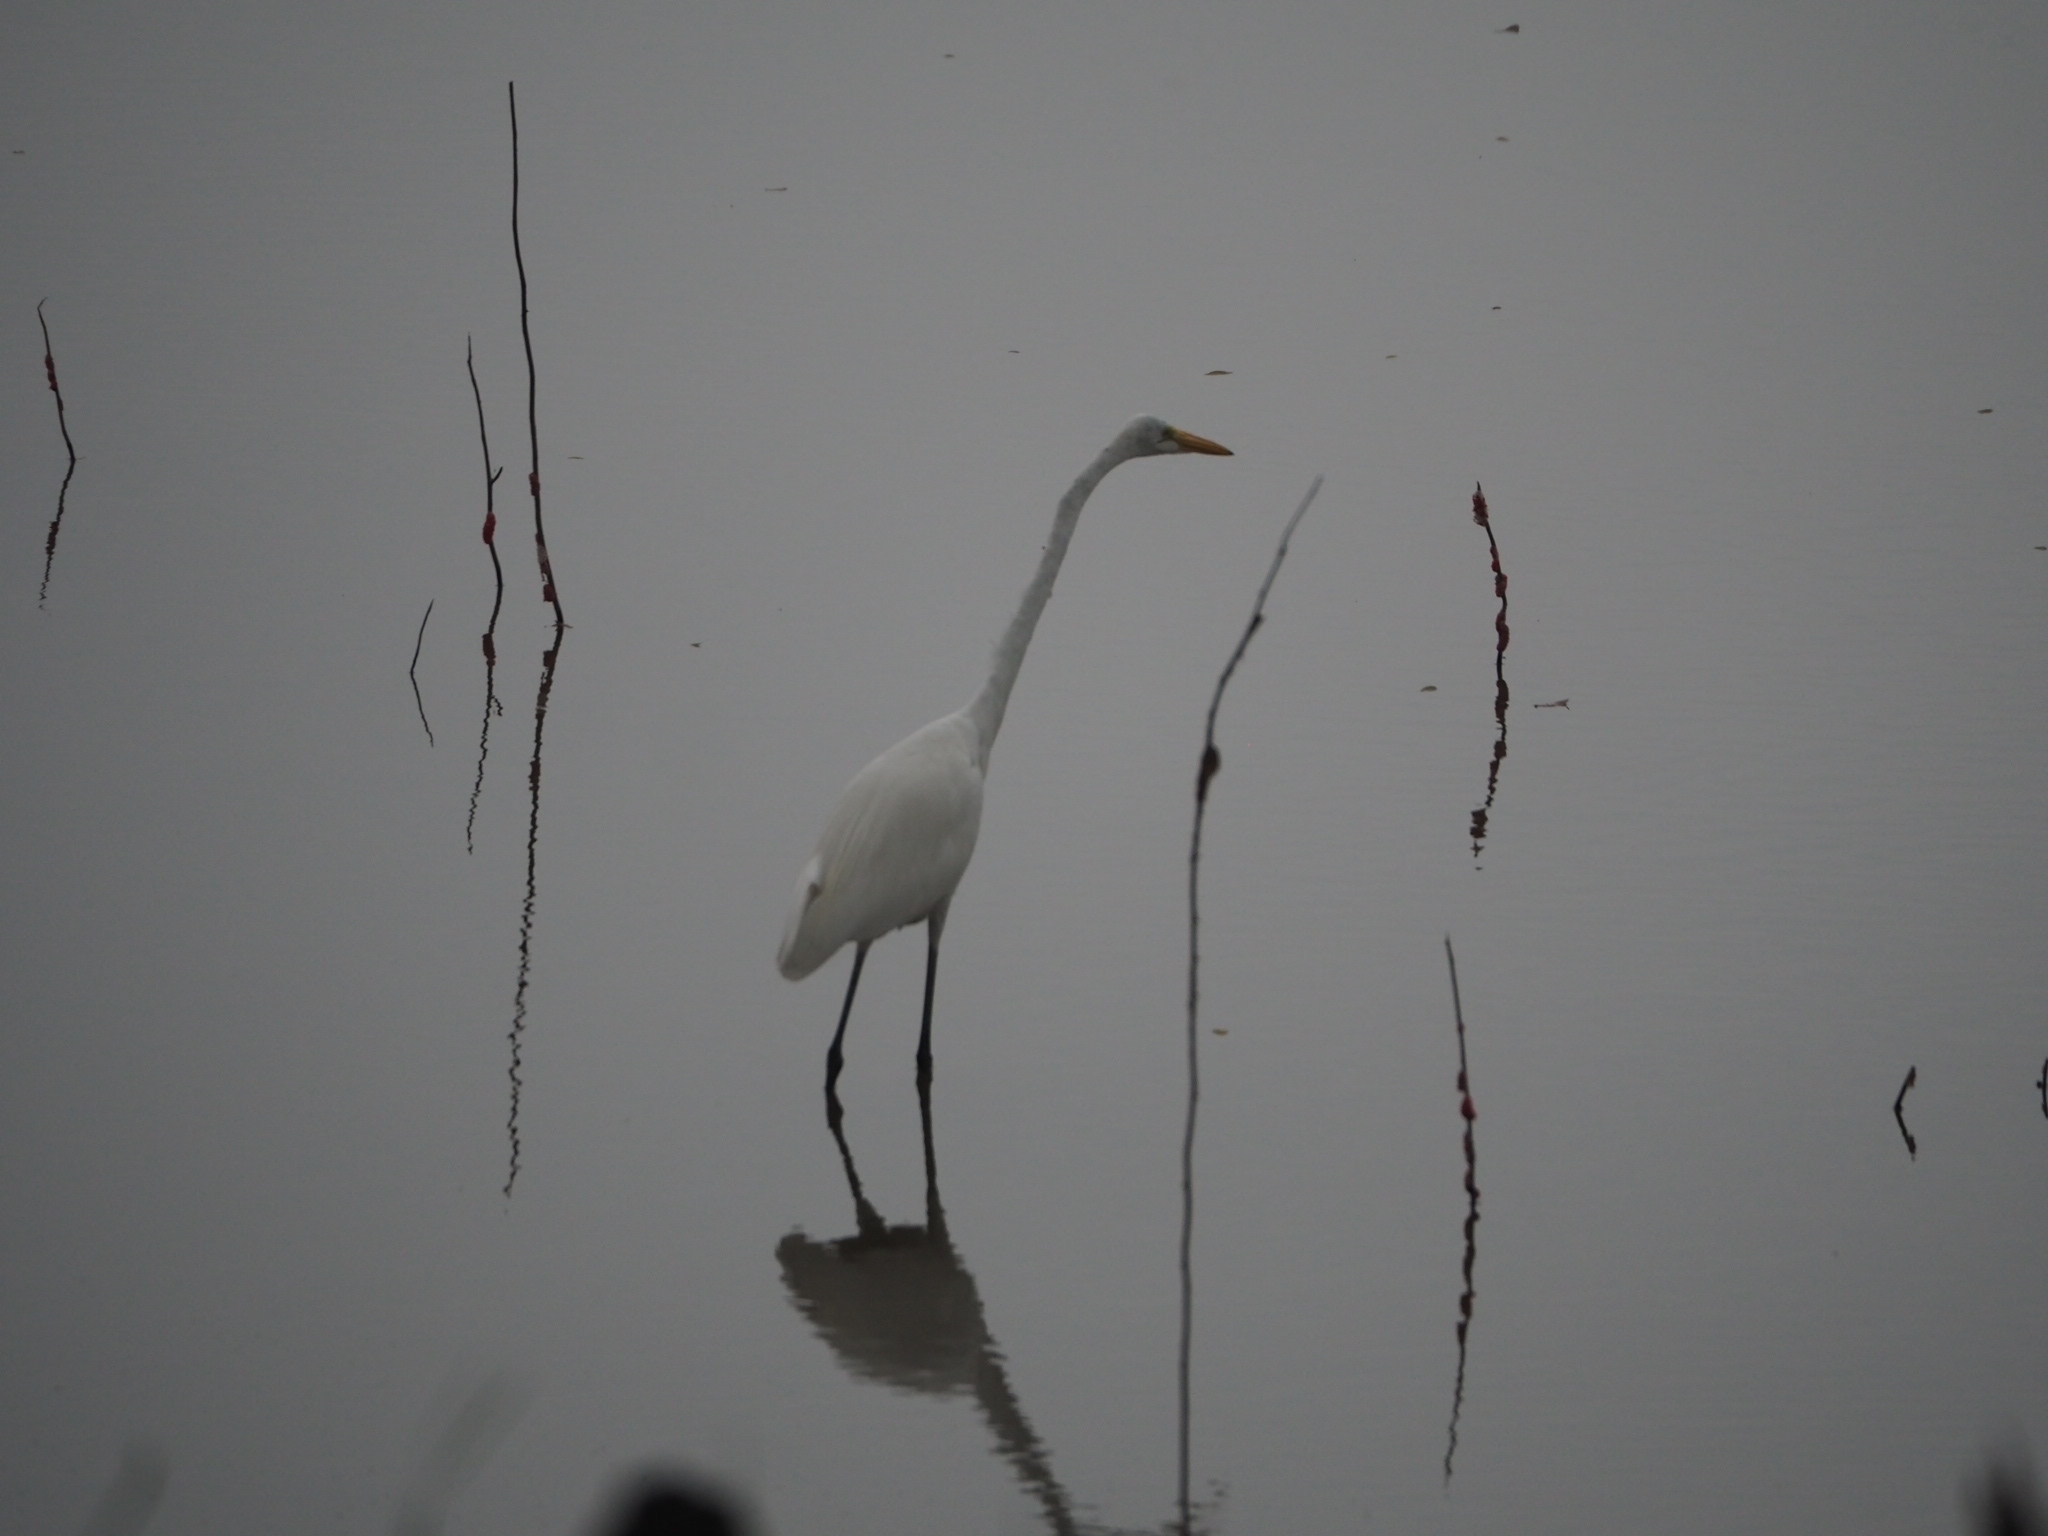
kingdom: Animalia
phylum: Chordata
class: Aves
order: Pelecaniformes
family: Ardeidae
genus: Ardea
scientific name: Ardea alba
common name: Great egret
